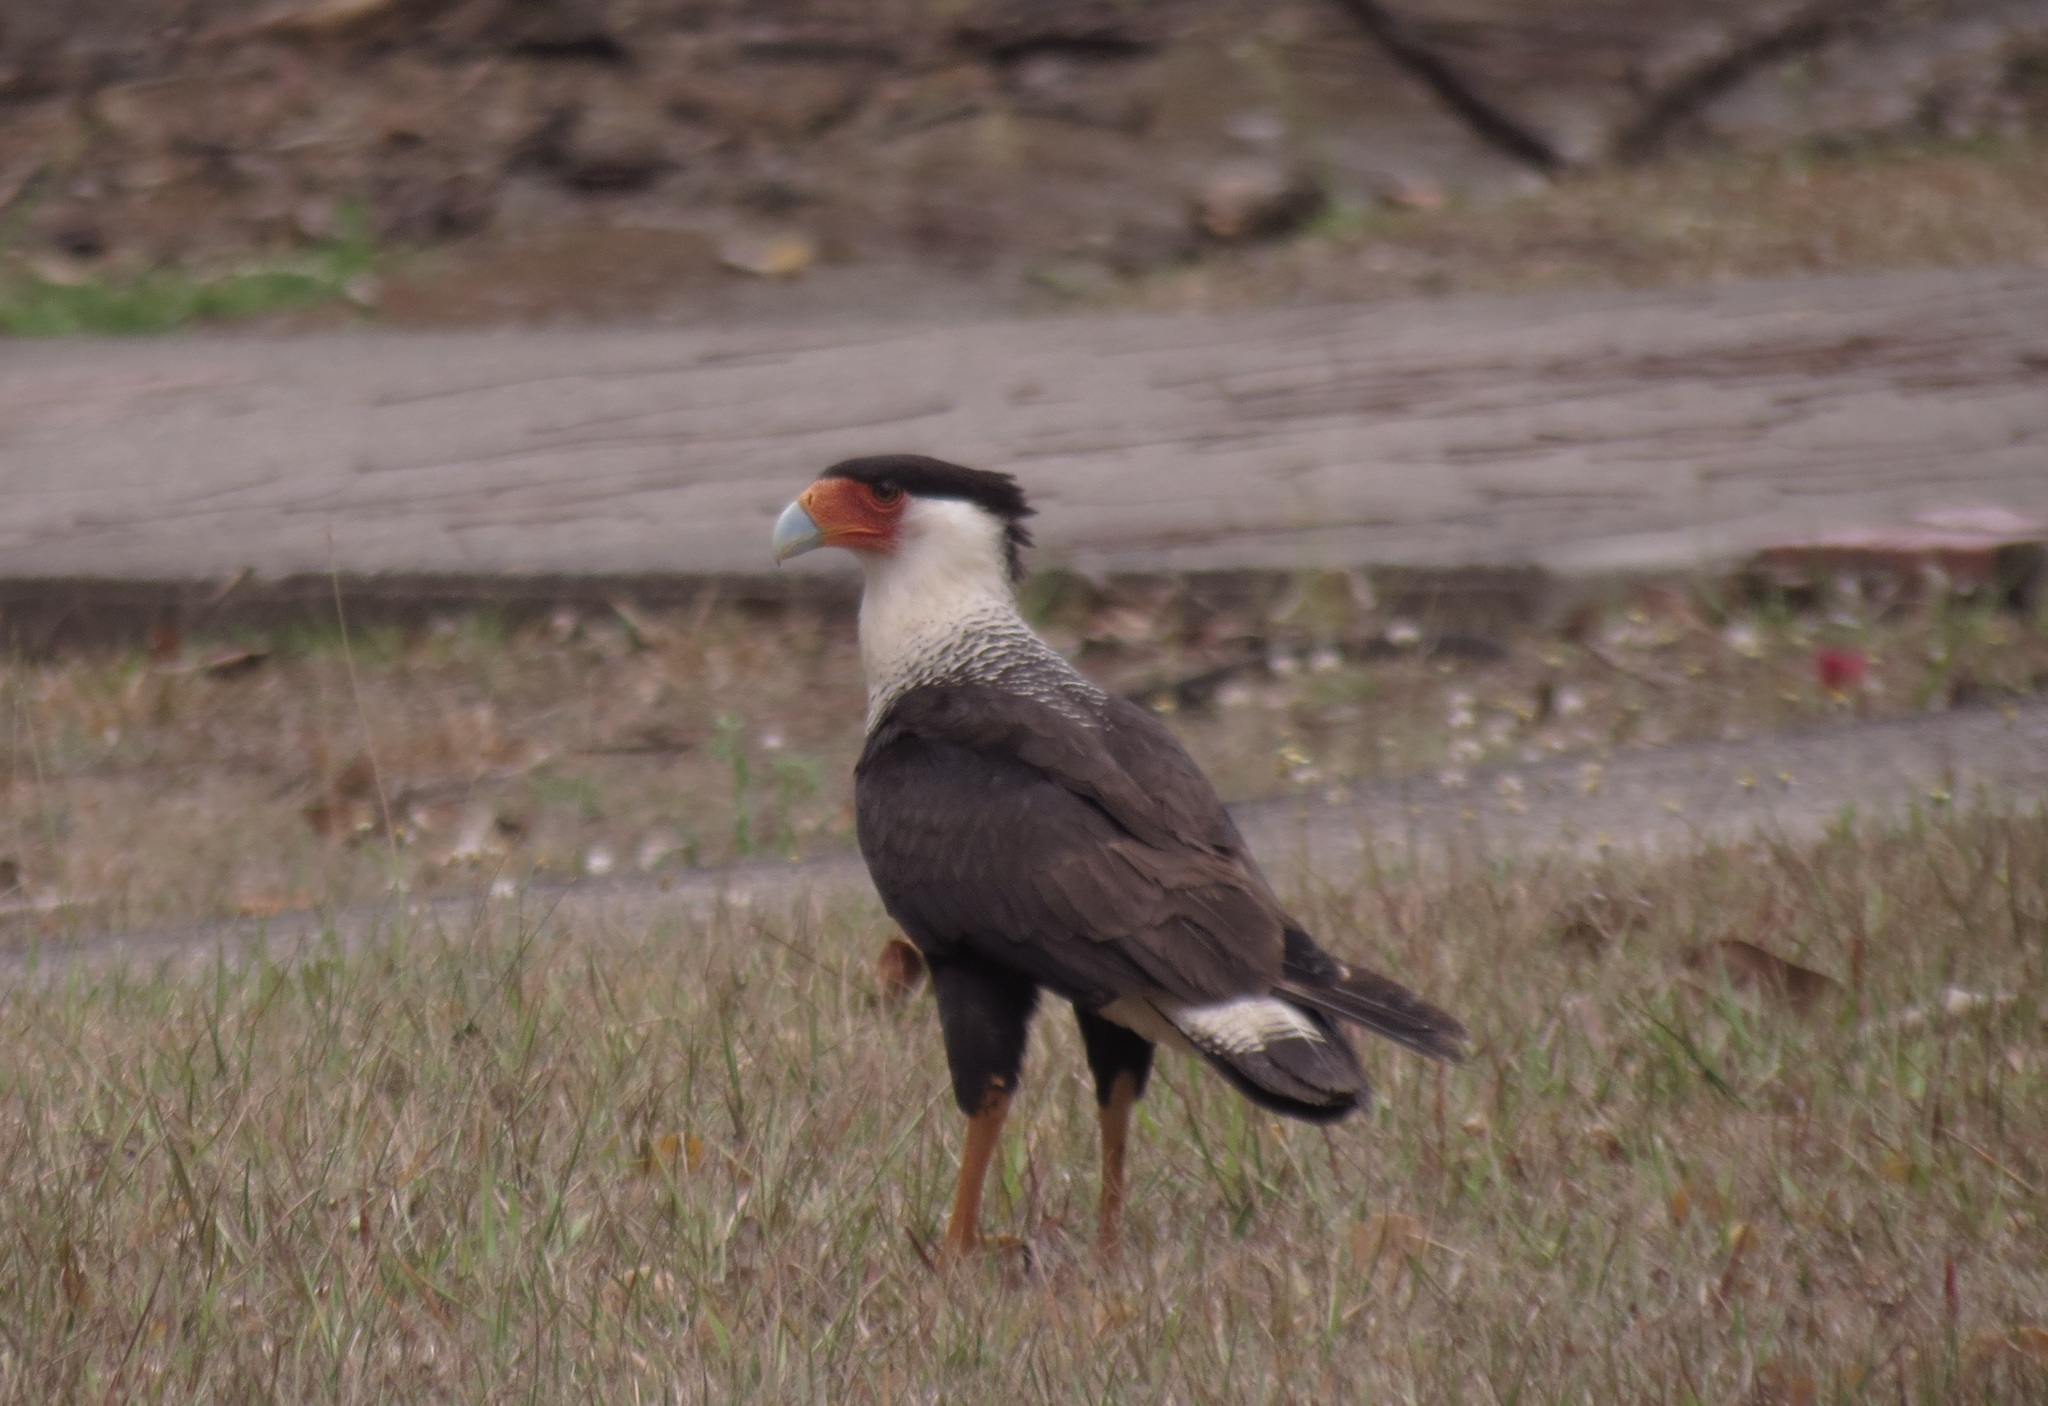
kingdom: Animalia
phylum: Chordata
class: Aves
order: Falconiformes
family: Falconidae
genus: Caracara
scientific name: Caracara plancus
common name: Southern caracara
